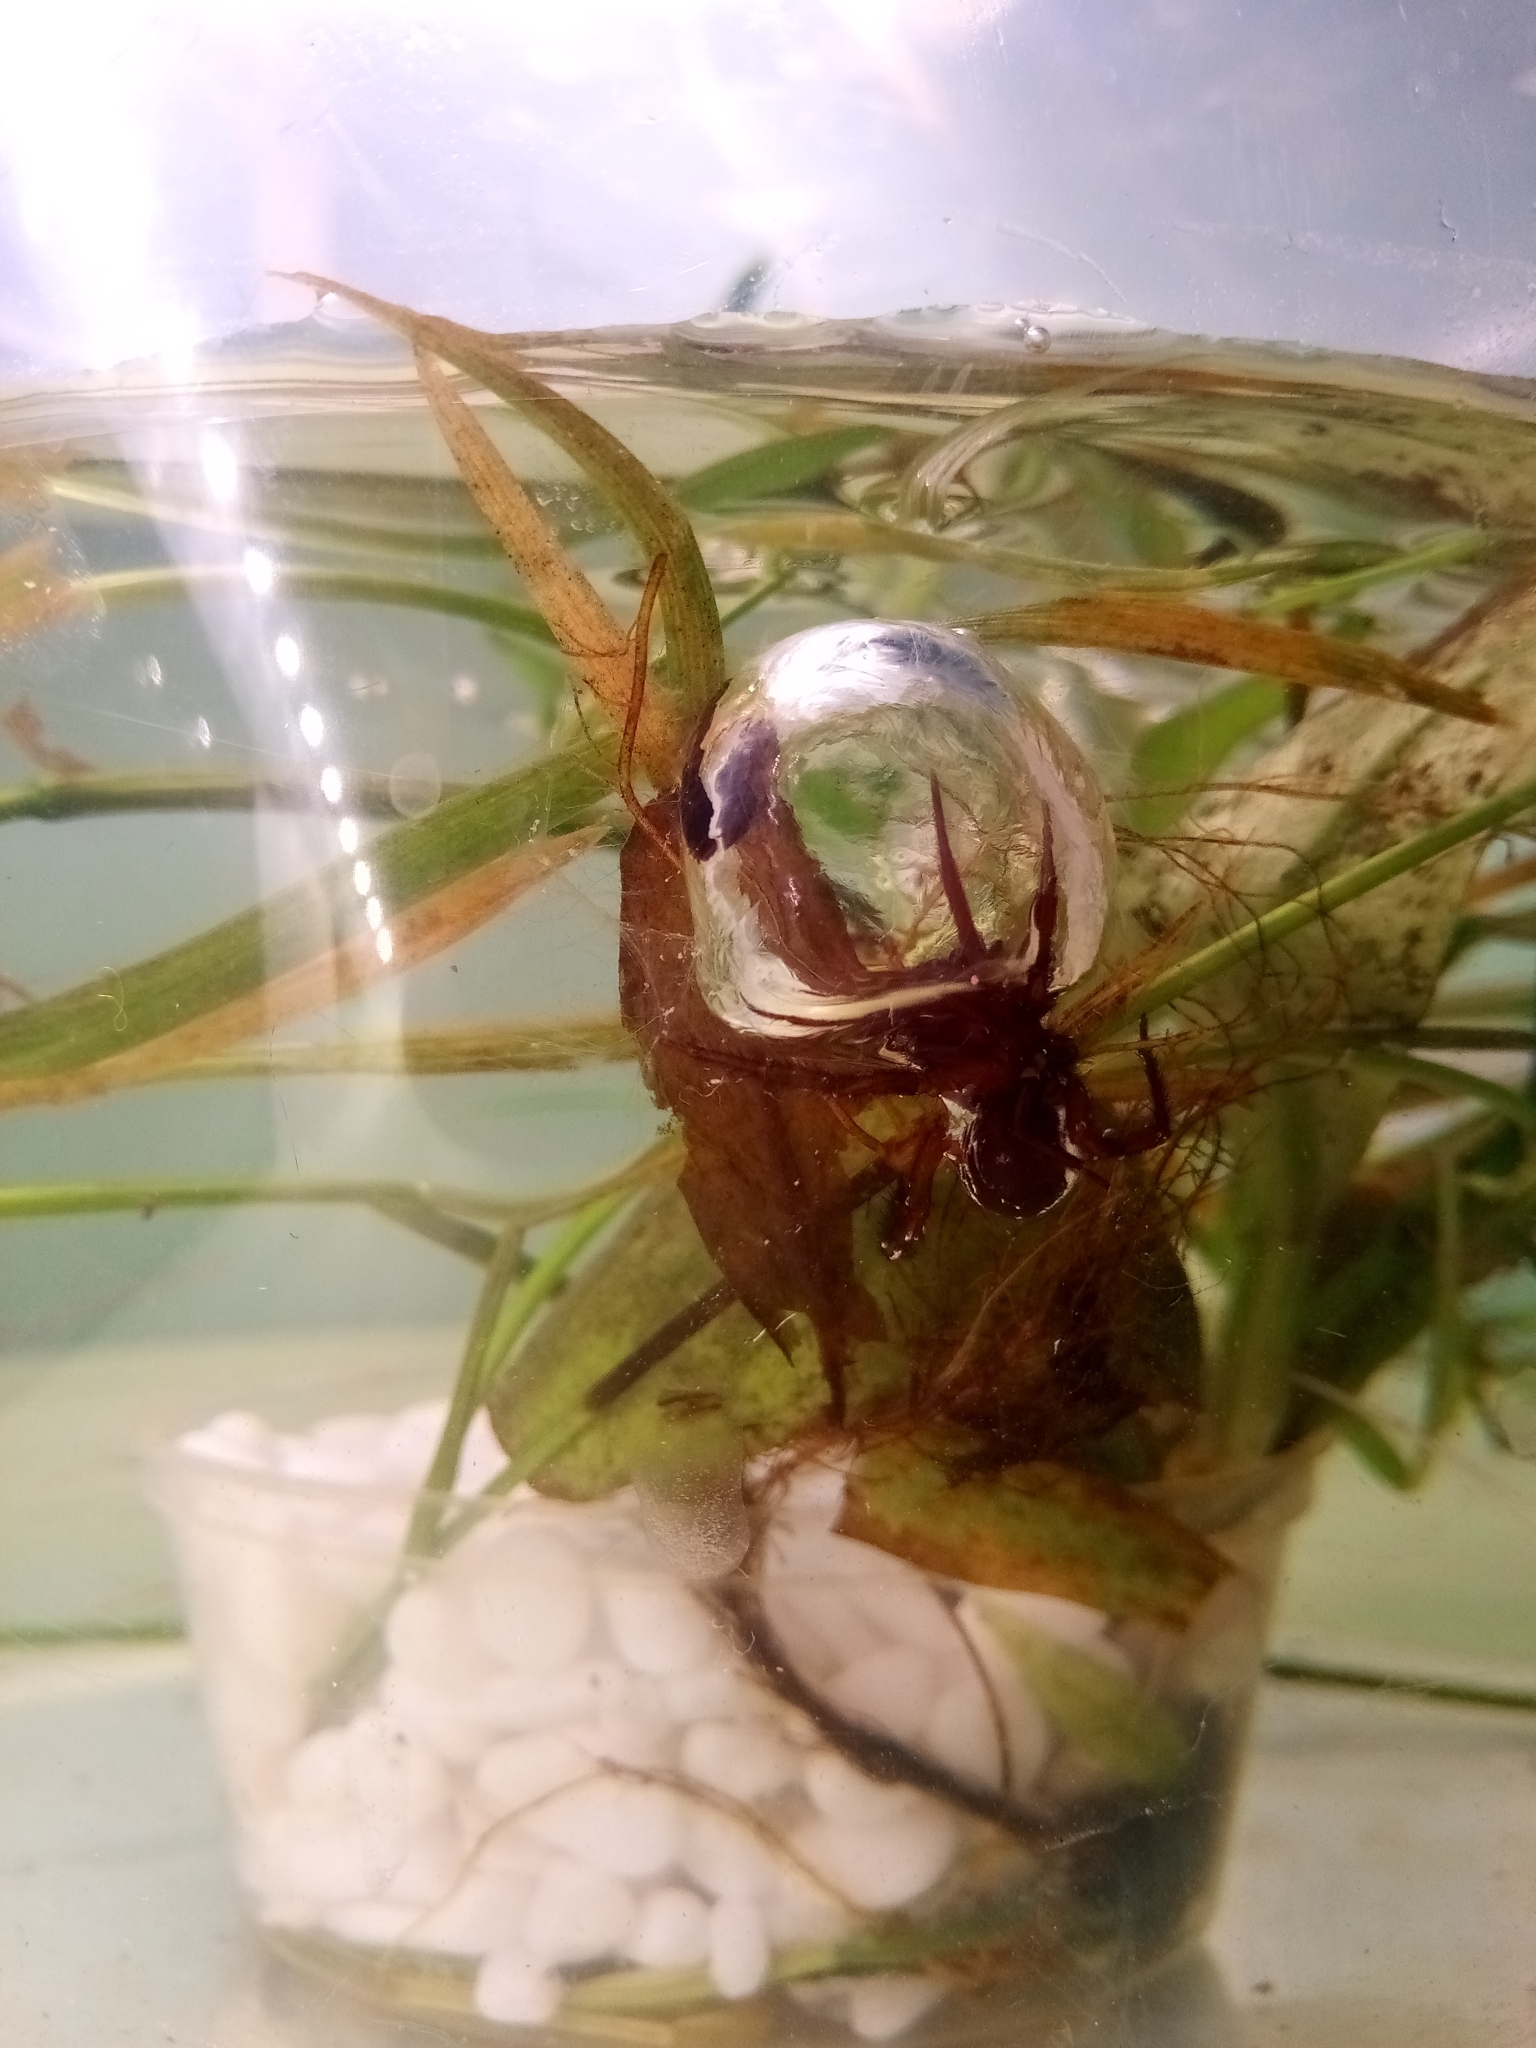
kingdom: Animalia
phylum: Arthropoda
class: Arachnida
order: Araneae
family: Dictynidae
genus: Argyroneta
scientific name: Argyroneta aquatica
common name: Water spider
